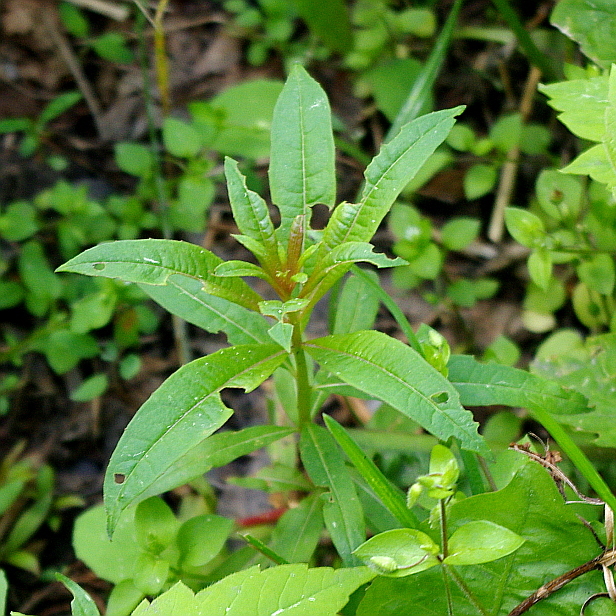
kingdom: Plantae
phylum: Tracheophyta
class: Magnoliopsida
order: Myrtales
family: Onagraceae
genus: Chamaenerion
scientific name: Chamaenerion angustifolium
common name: Fireweed
